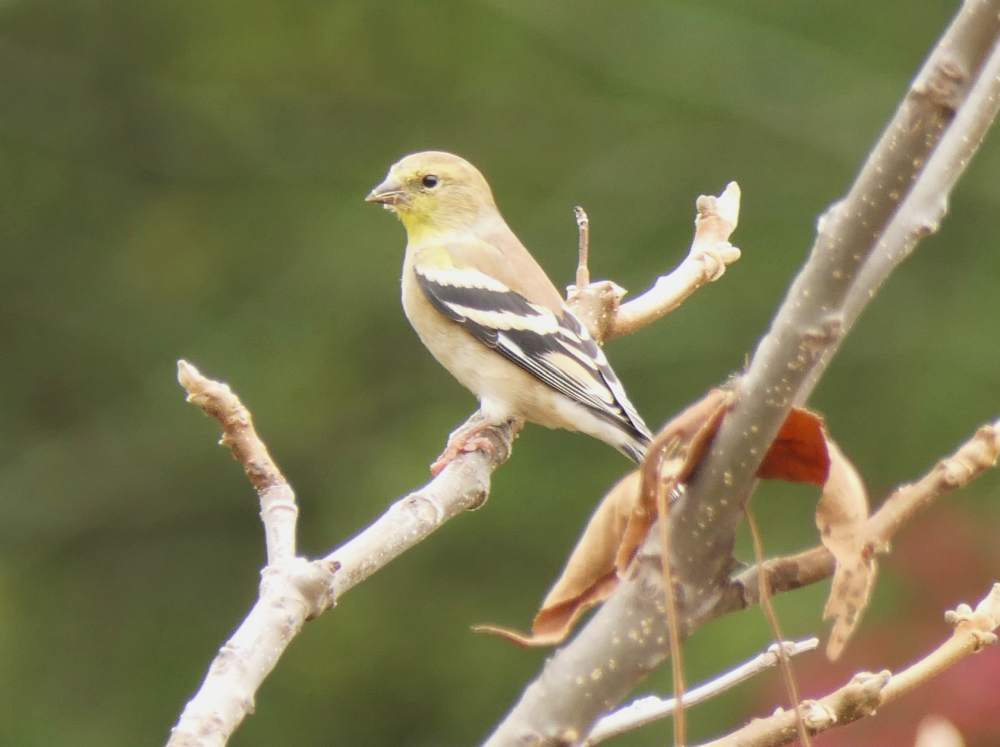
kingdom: Animalia
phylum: Chordata
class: Aves
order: Passeriformes
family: Fringillidae
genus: Spinus
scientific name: Spinus tristis
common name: American goldfinch
